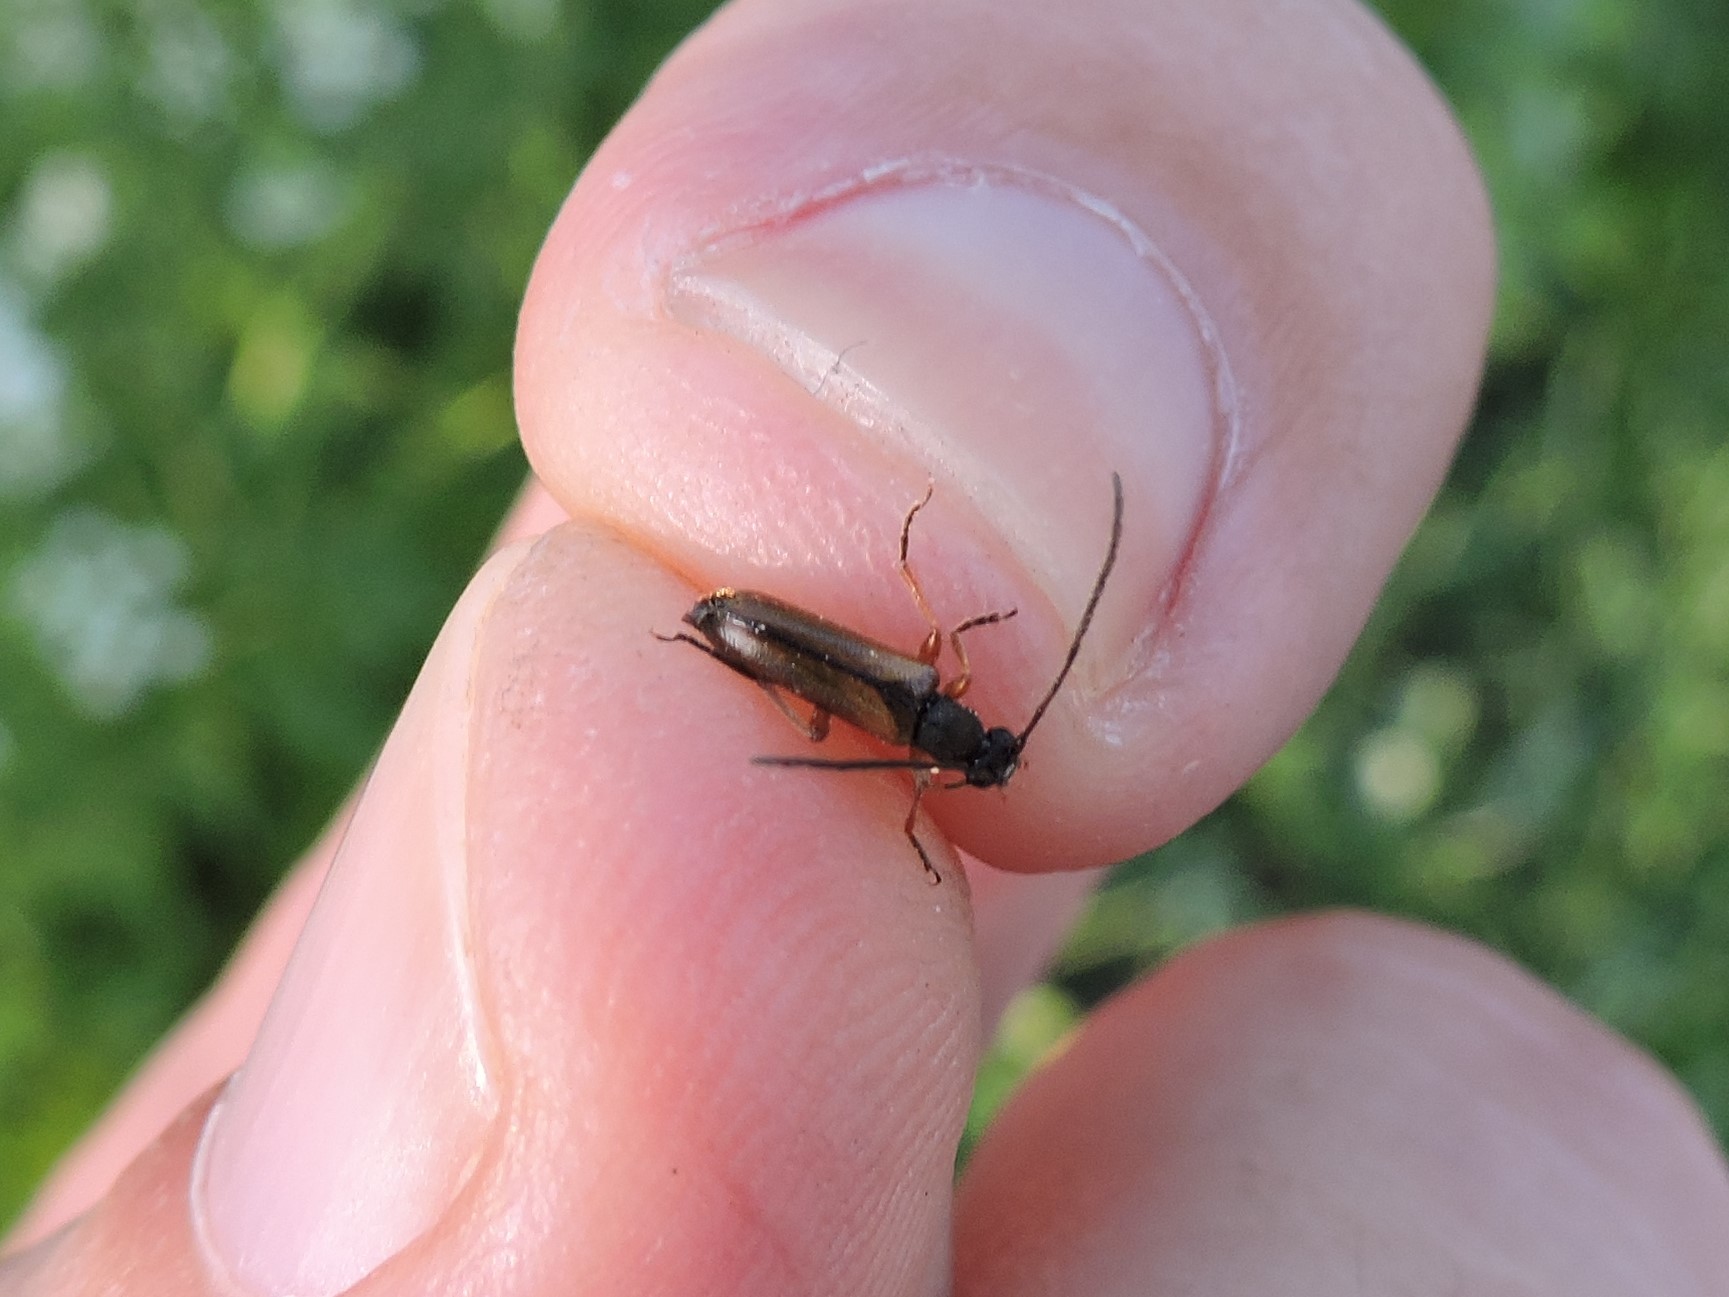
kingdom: Animalia
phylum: Arthropoda
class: Insecta
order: Coleoptera
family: Cerambycidae
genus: Alosterna
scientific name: Alosterna tabacicolor
